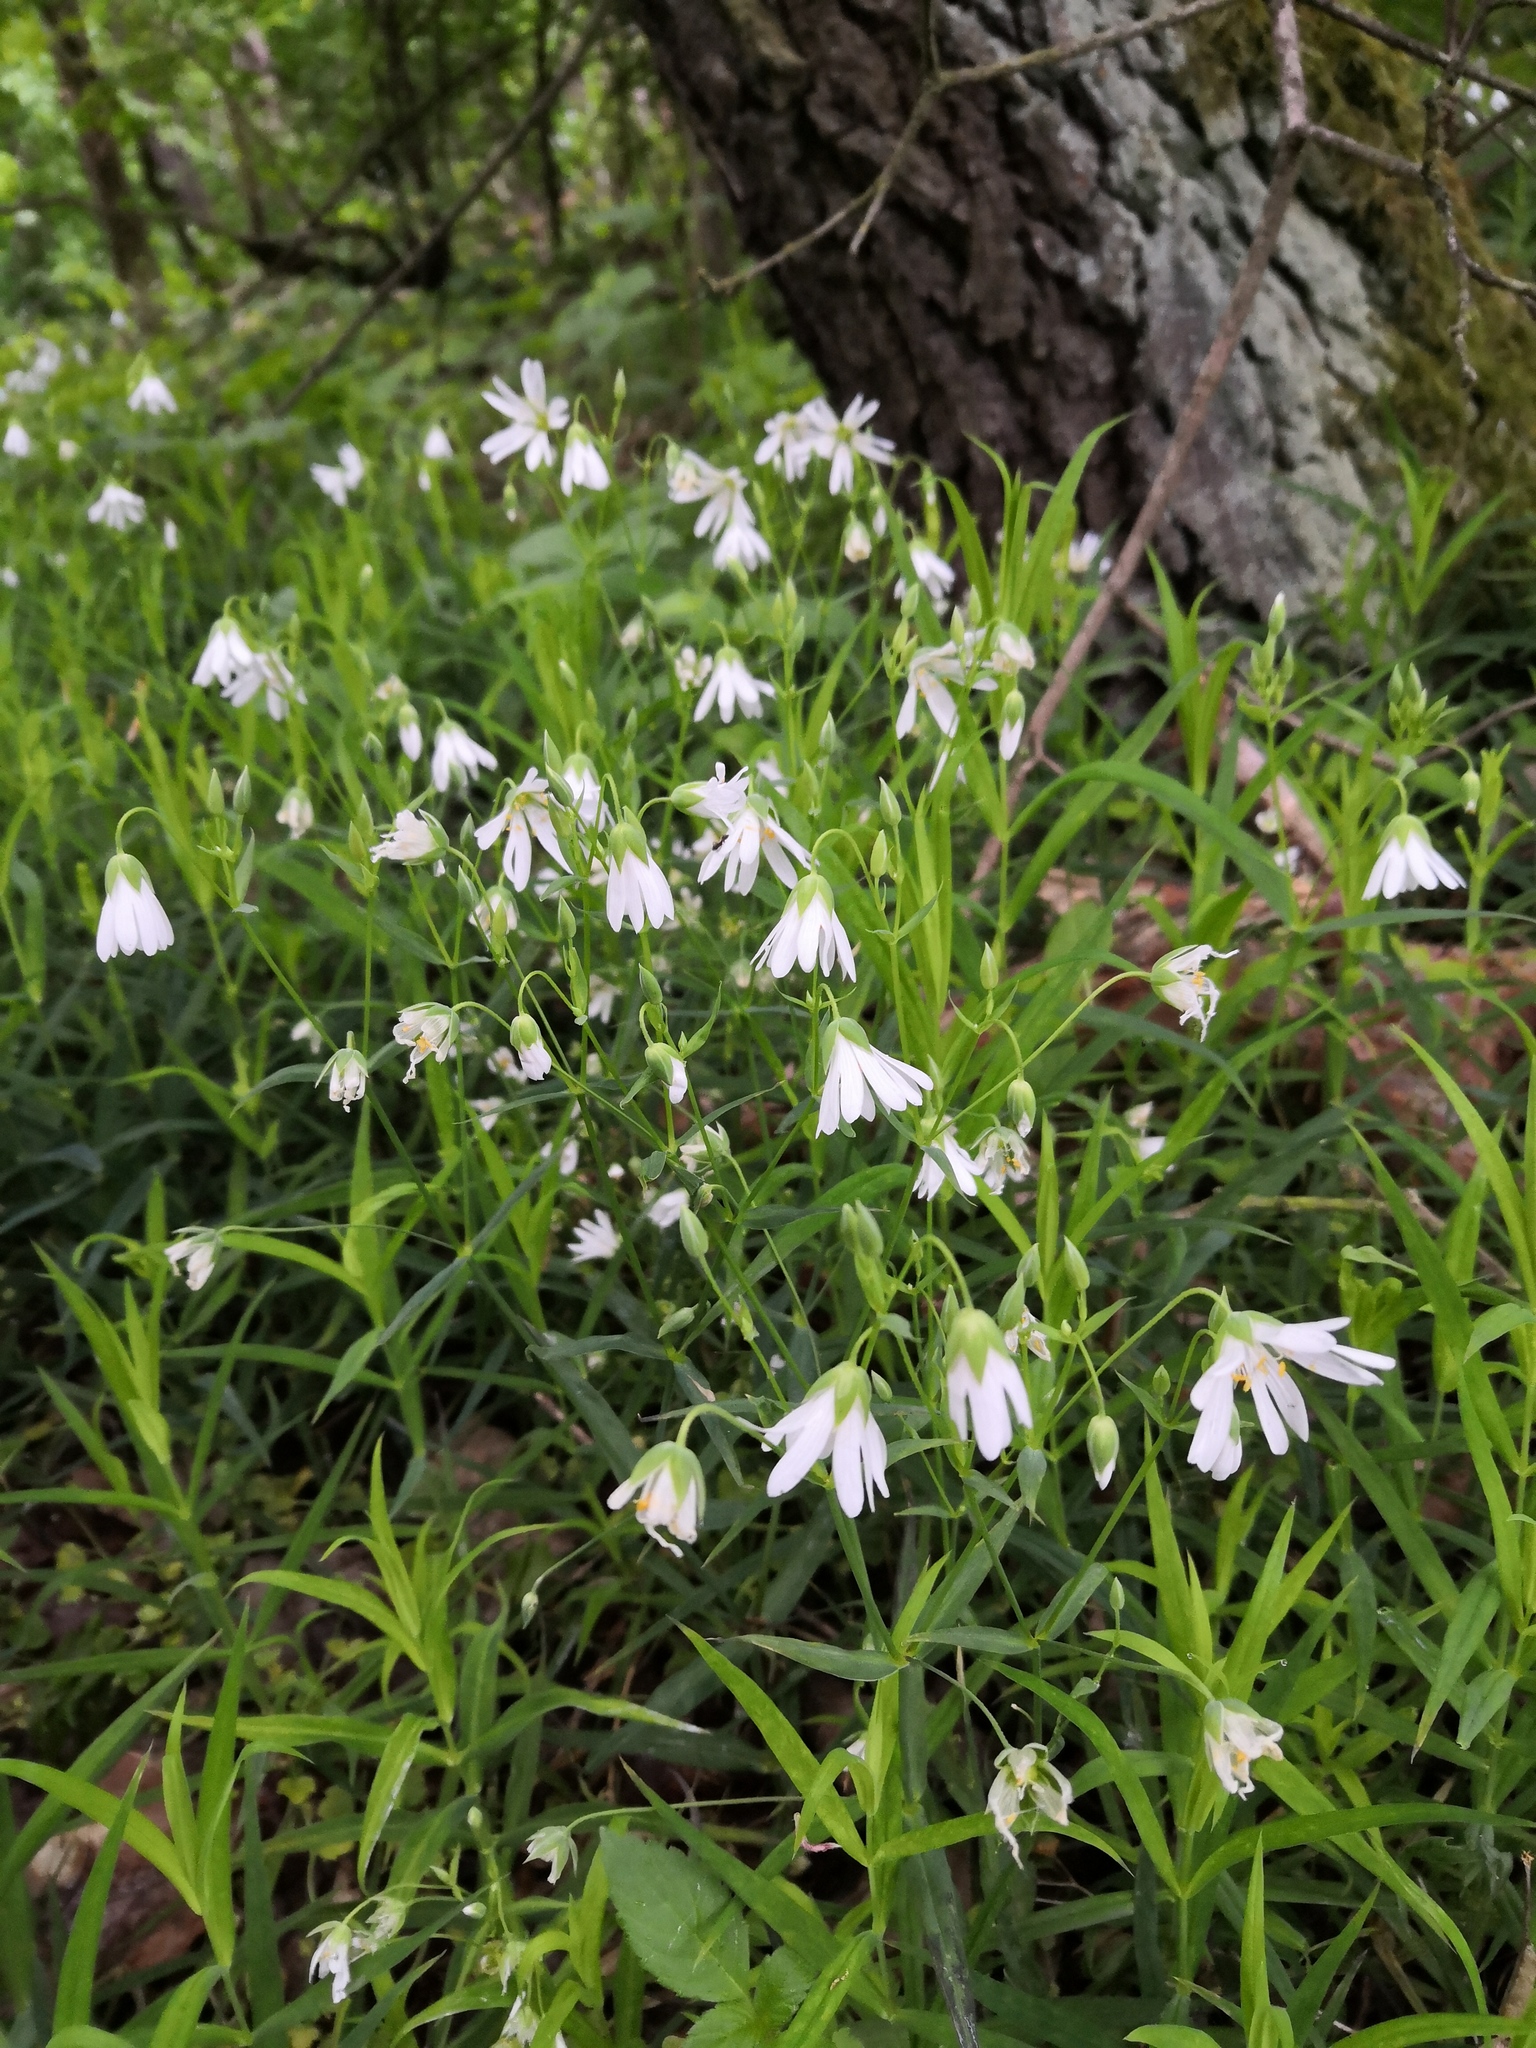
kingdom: Plantae
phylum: Tracheophyta
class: Magnoliopsida
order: Caryophyllales
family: Caryophyllaceae
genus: Rabelera
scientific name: Rabelera holostea
